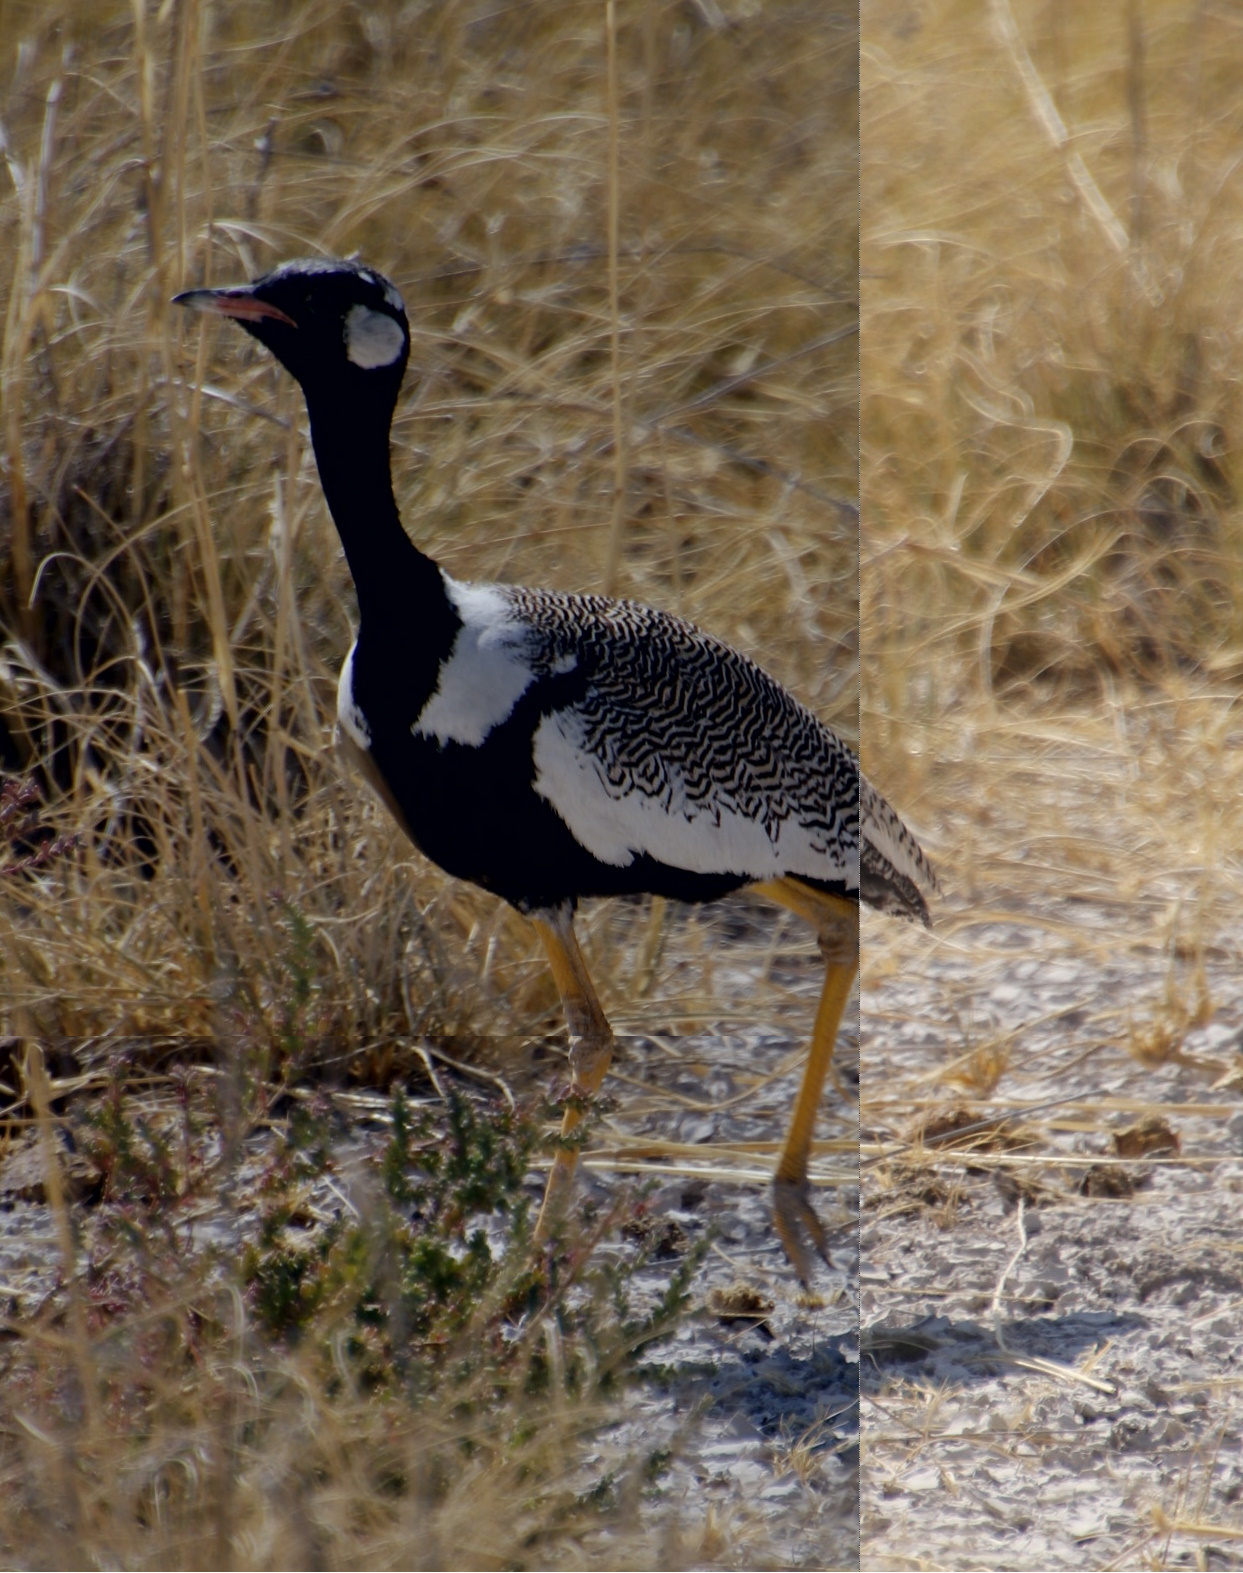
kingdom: Animalia
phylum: Chordata
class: Aves
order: Otidiformes
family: Otididae
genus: Afrotis
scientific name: Afrotis afraoides
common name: Northern black korhaan
